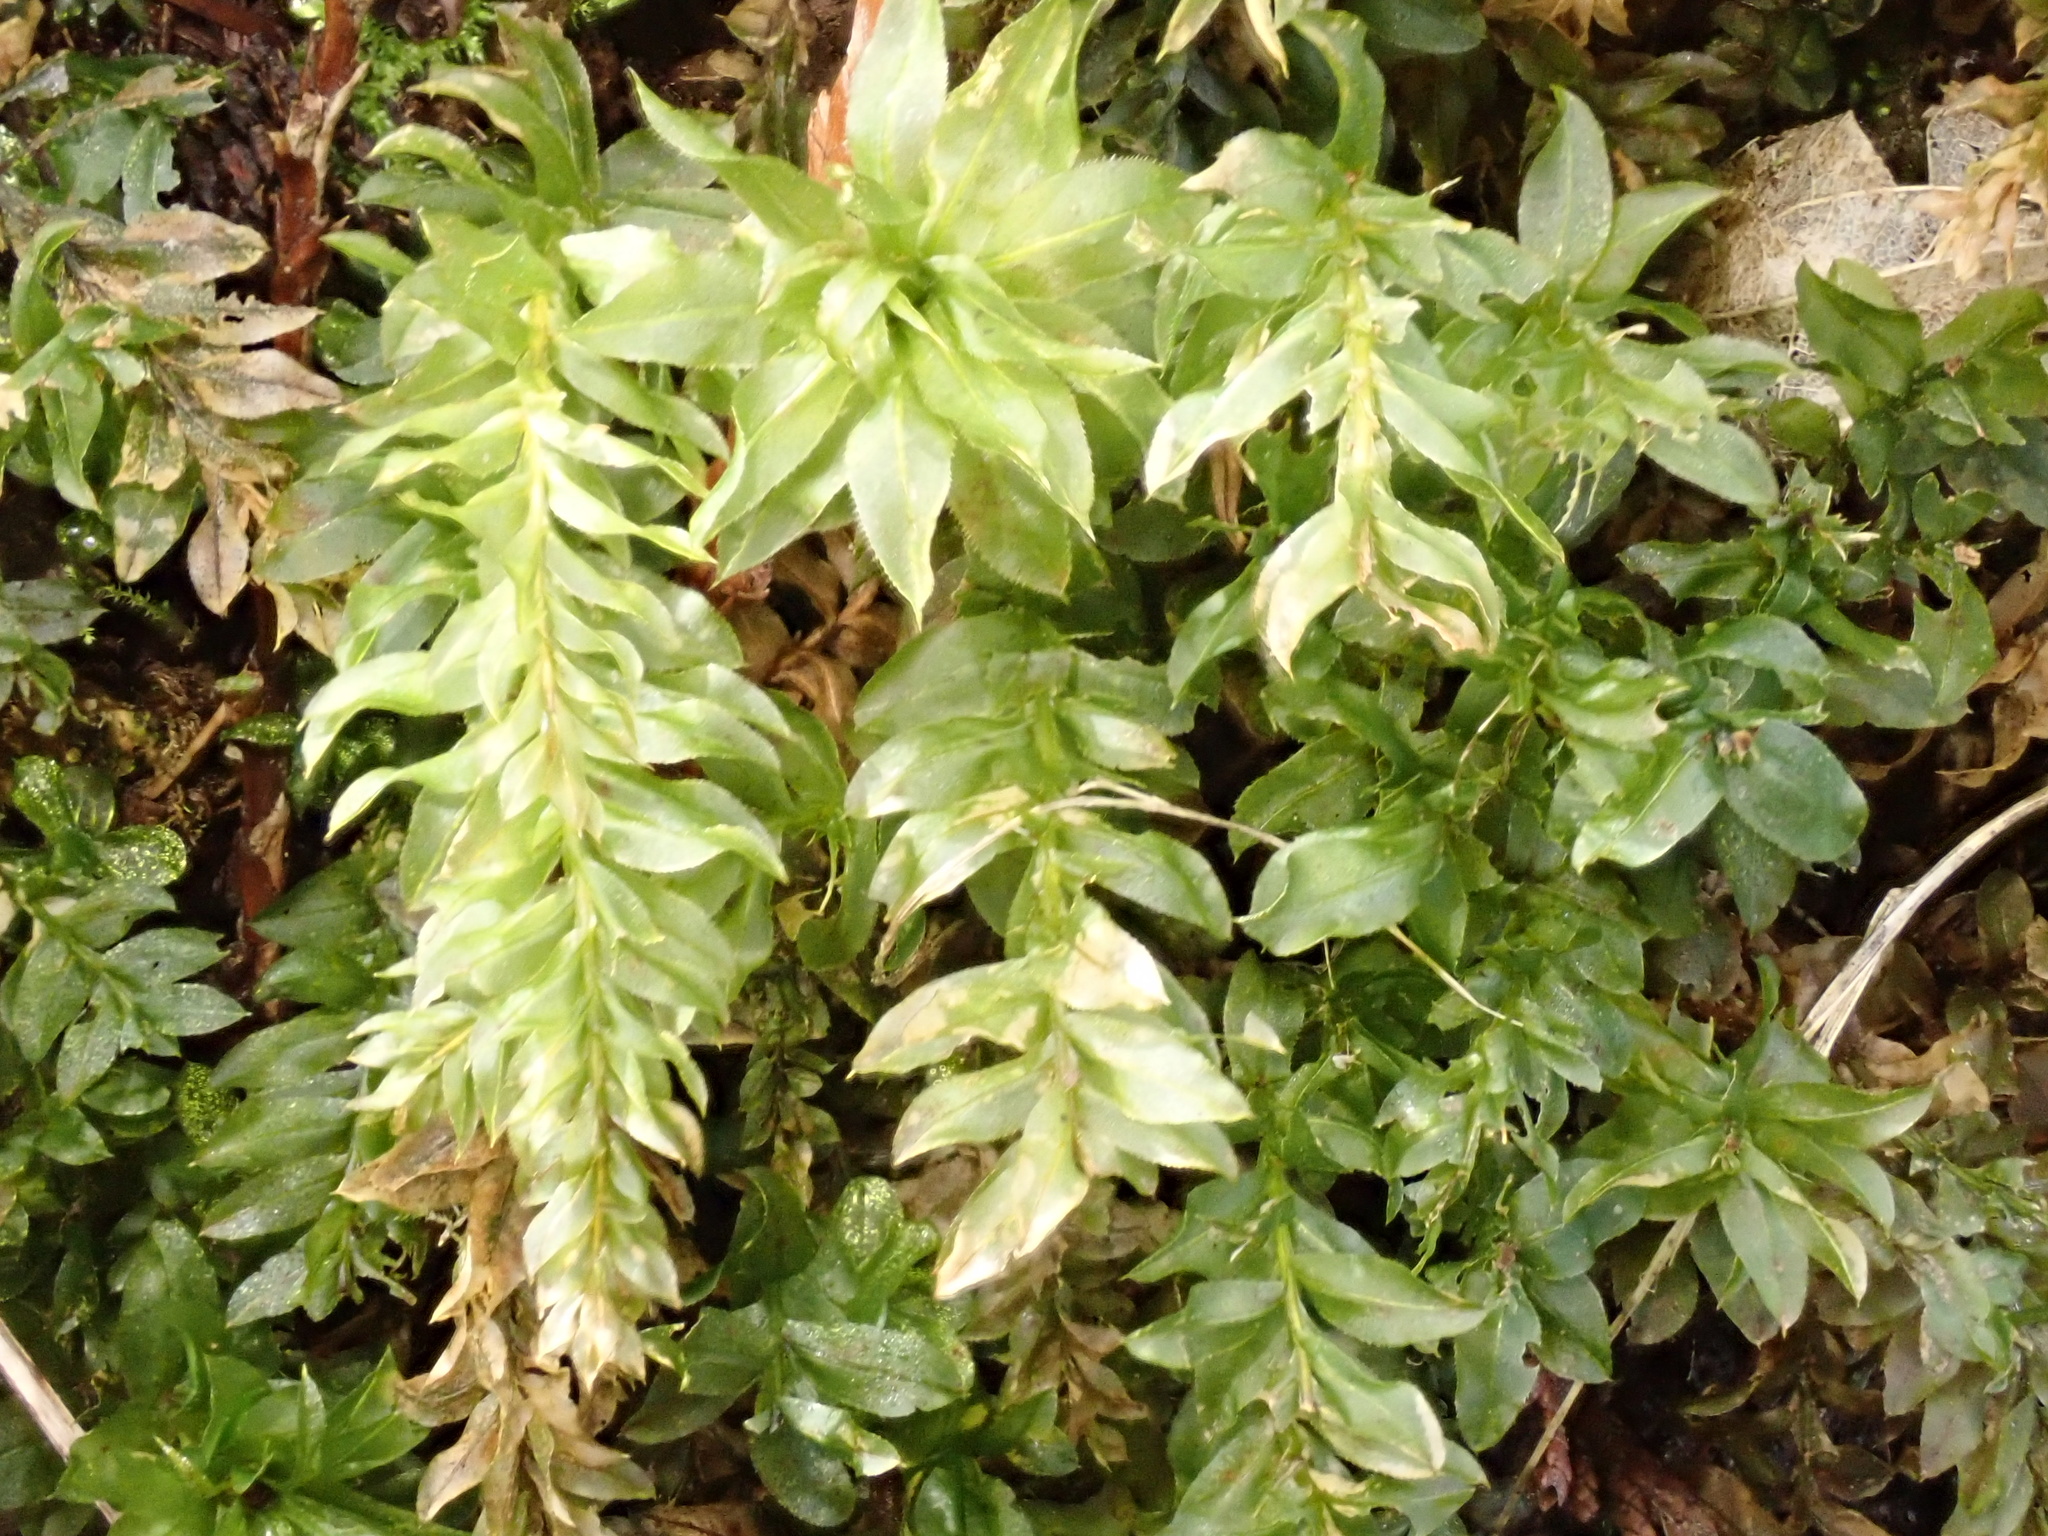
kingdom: Plantae
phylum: Bryophyta
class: Bryopsida
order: Bryales
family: Mniaceae
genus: Plagiomnium
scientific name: Plagiomnium insigne
